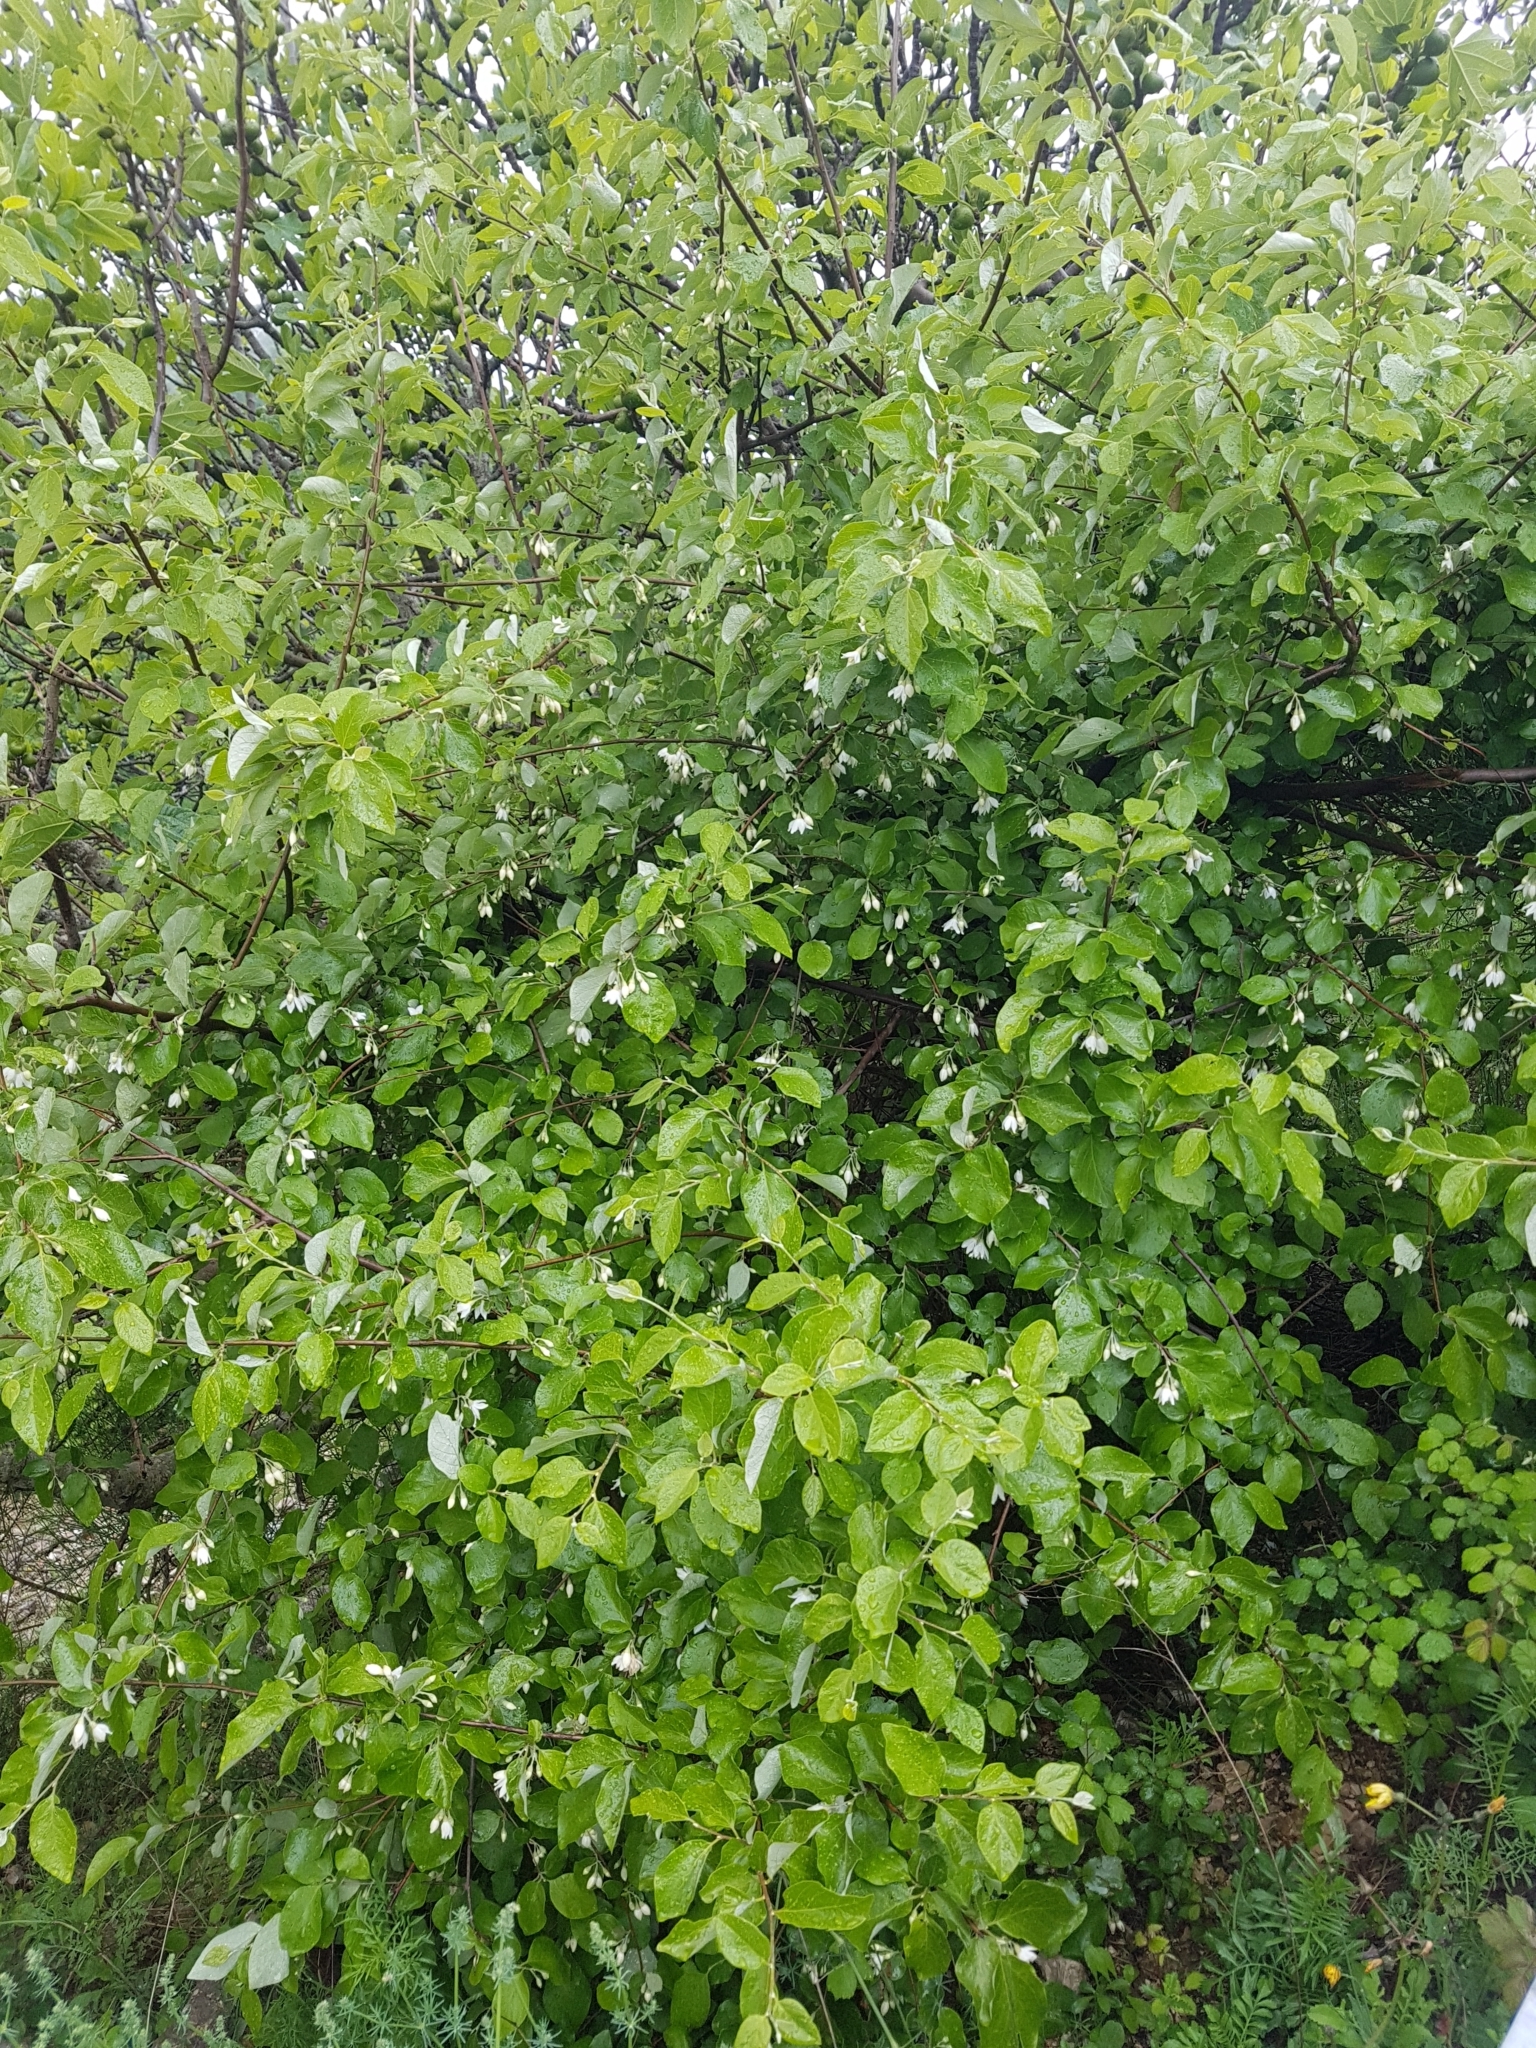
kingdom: Plantae
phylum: Tracheophyta
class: Magnoliopsida
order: Ericales
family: Styracaceae
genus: Styrax
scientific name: Styrax officinalis
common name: Storax
